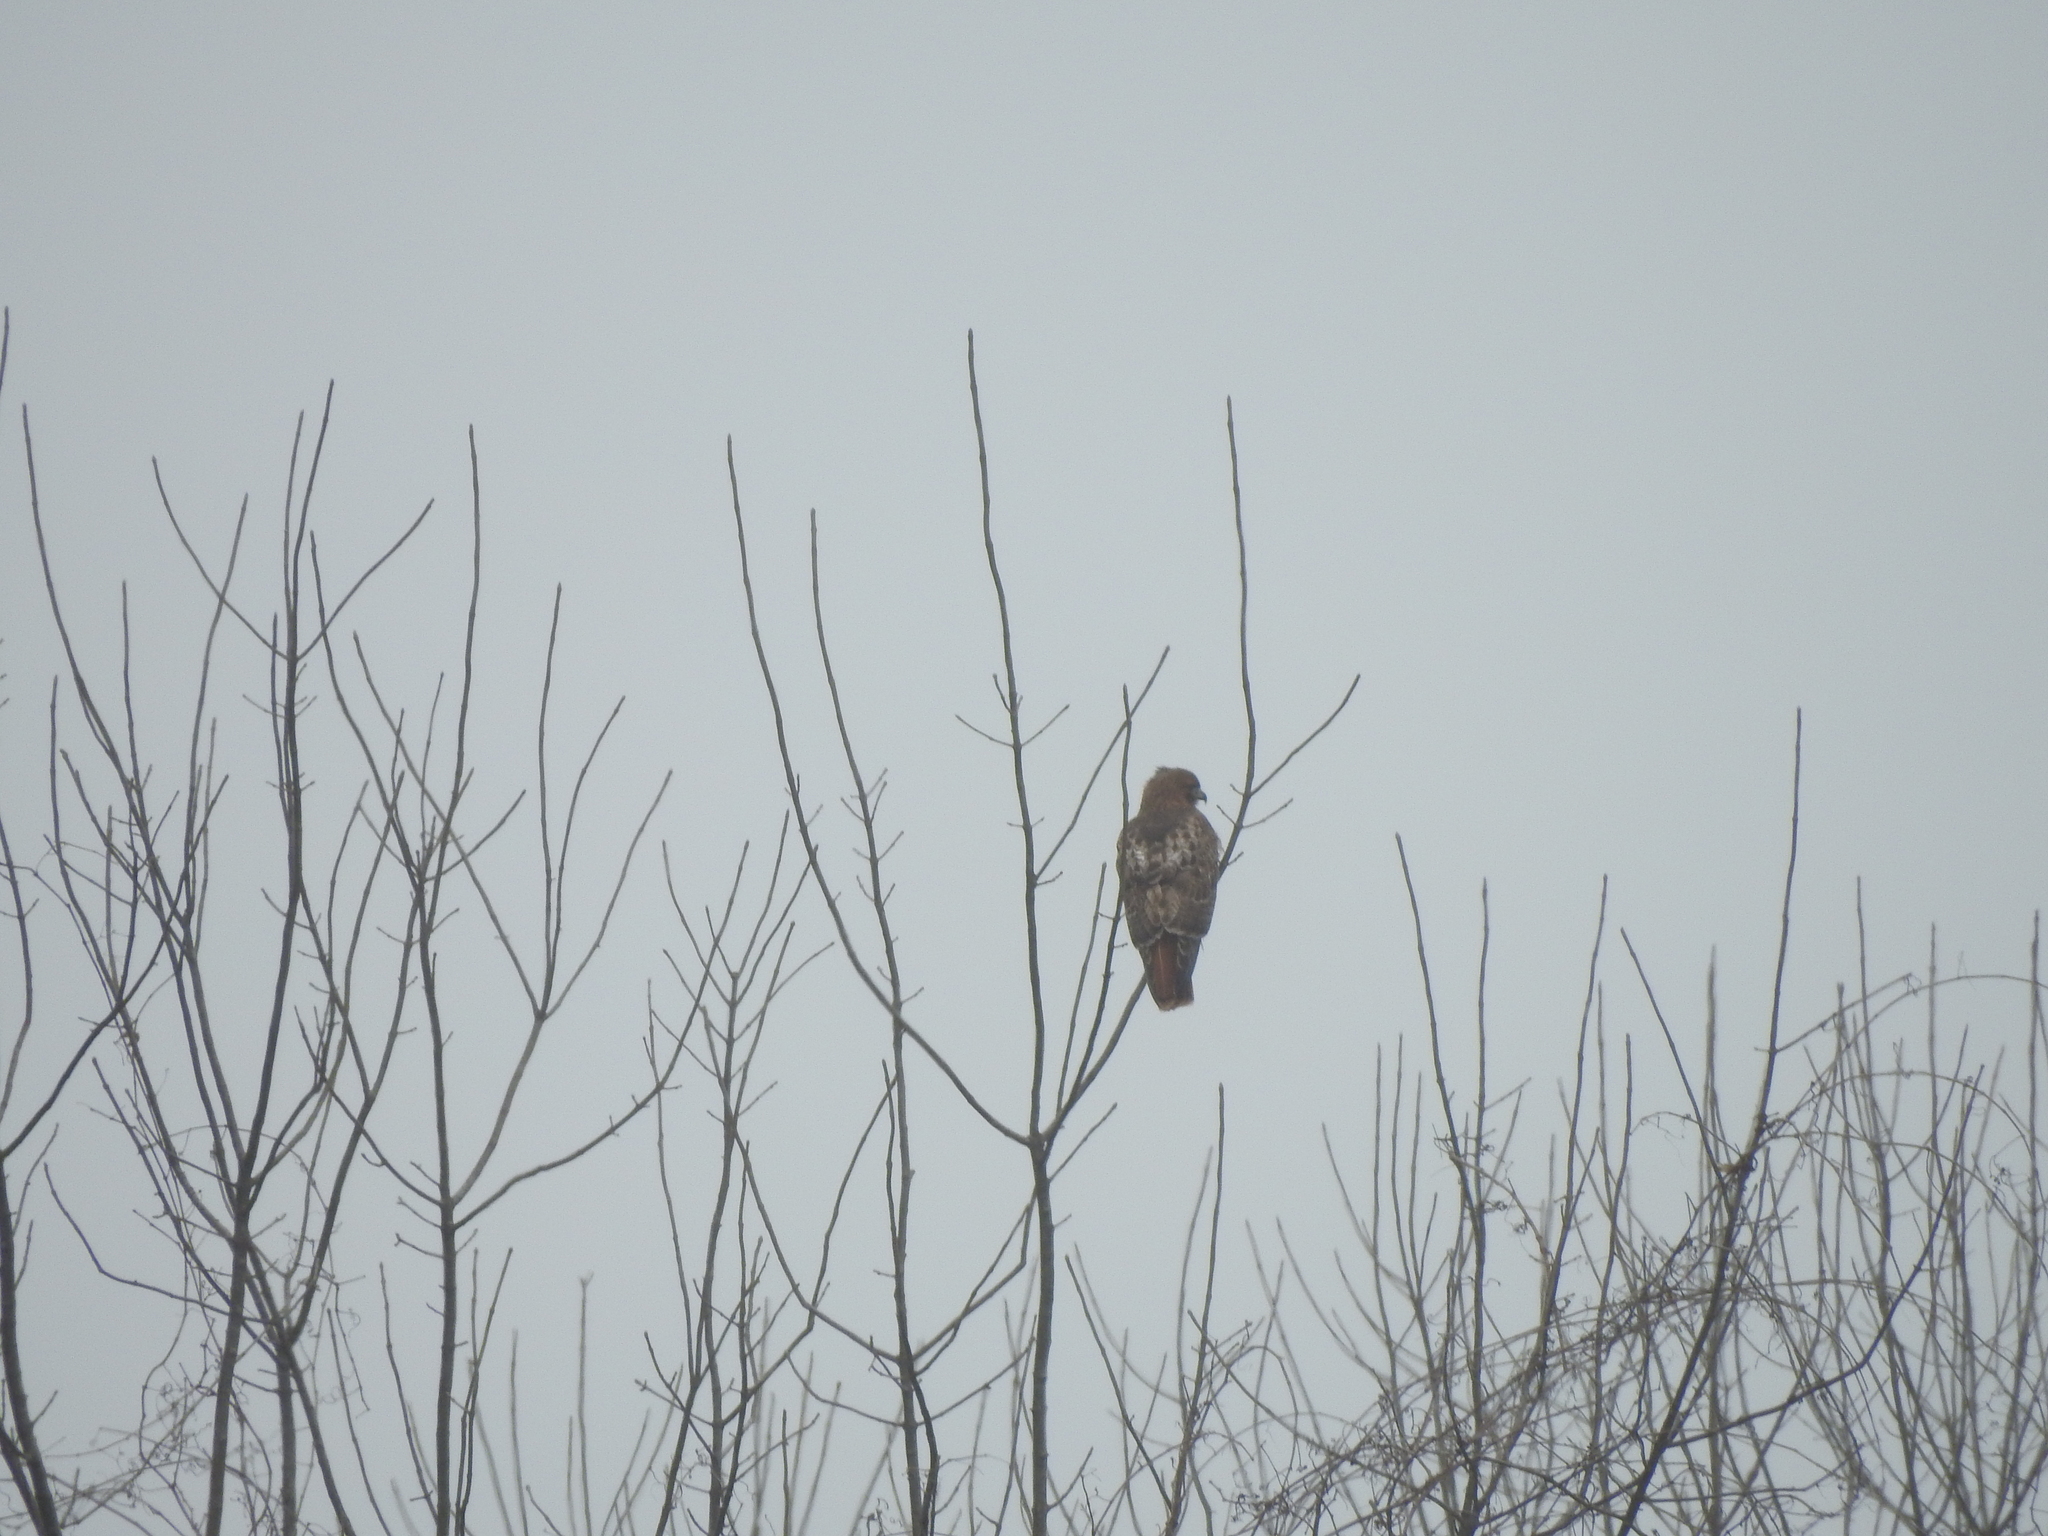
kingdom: Animalia
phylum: Chordata
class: Aves
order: Accipitriformes
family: Accipitridae
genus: Buteo
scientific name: Buteo jamaicensis
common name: Red-tailed hawk
